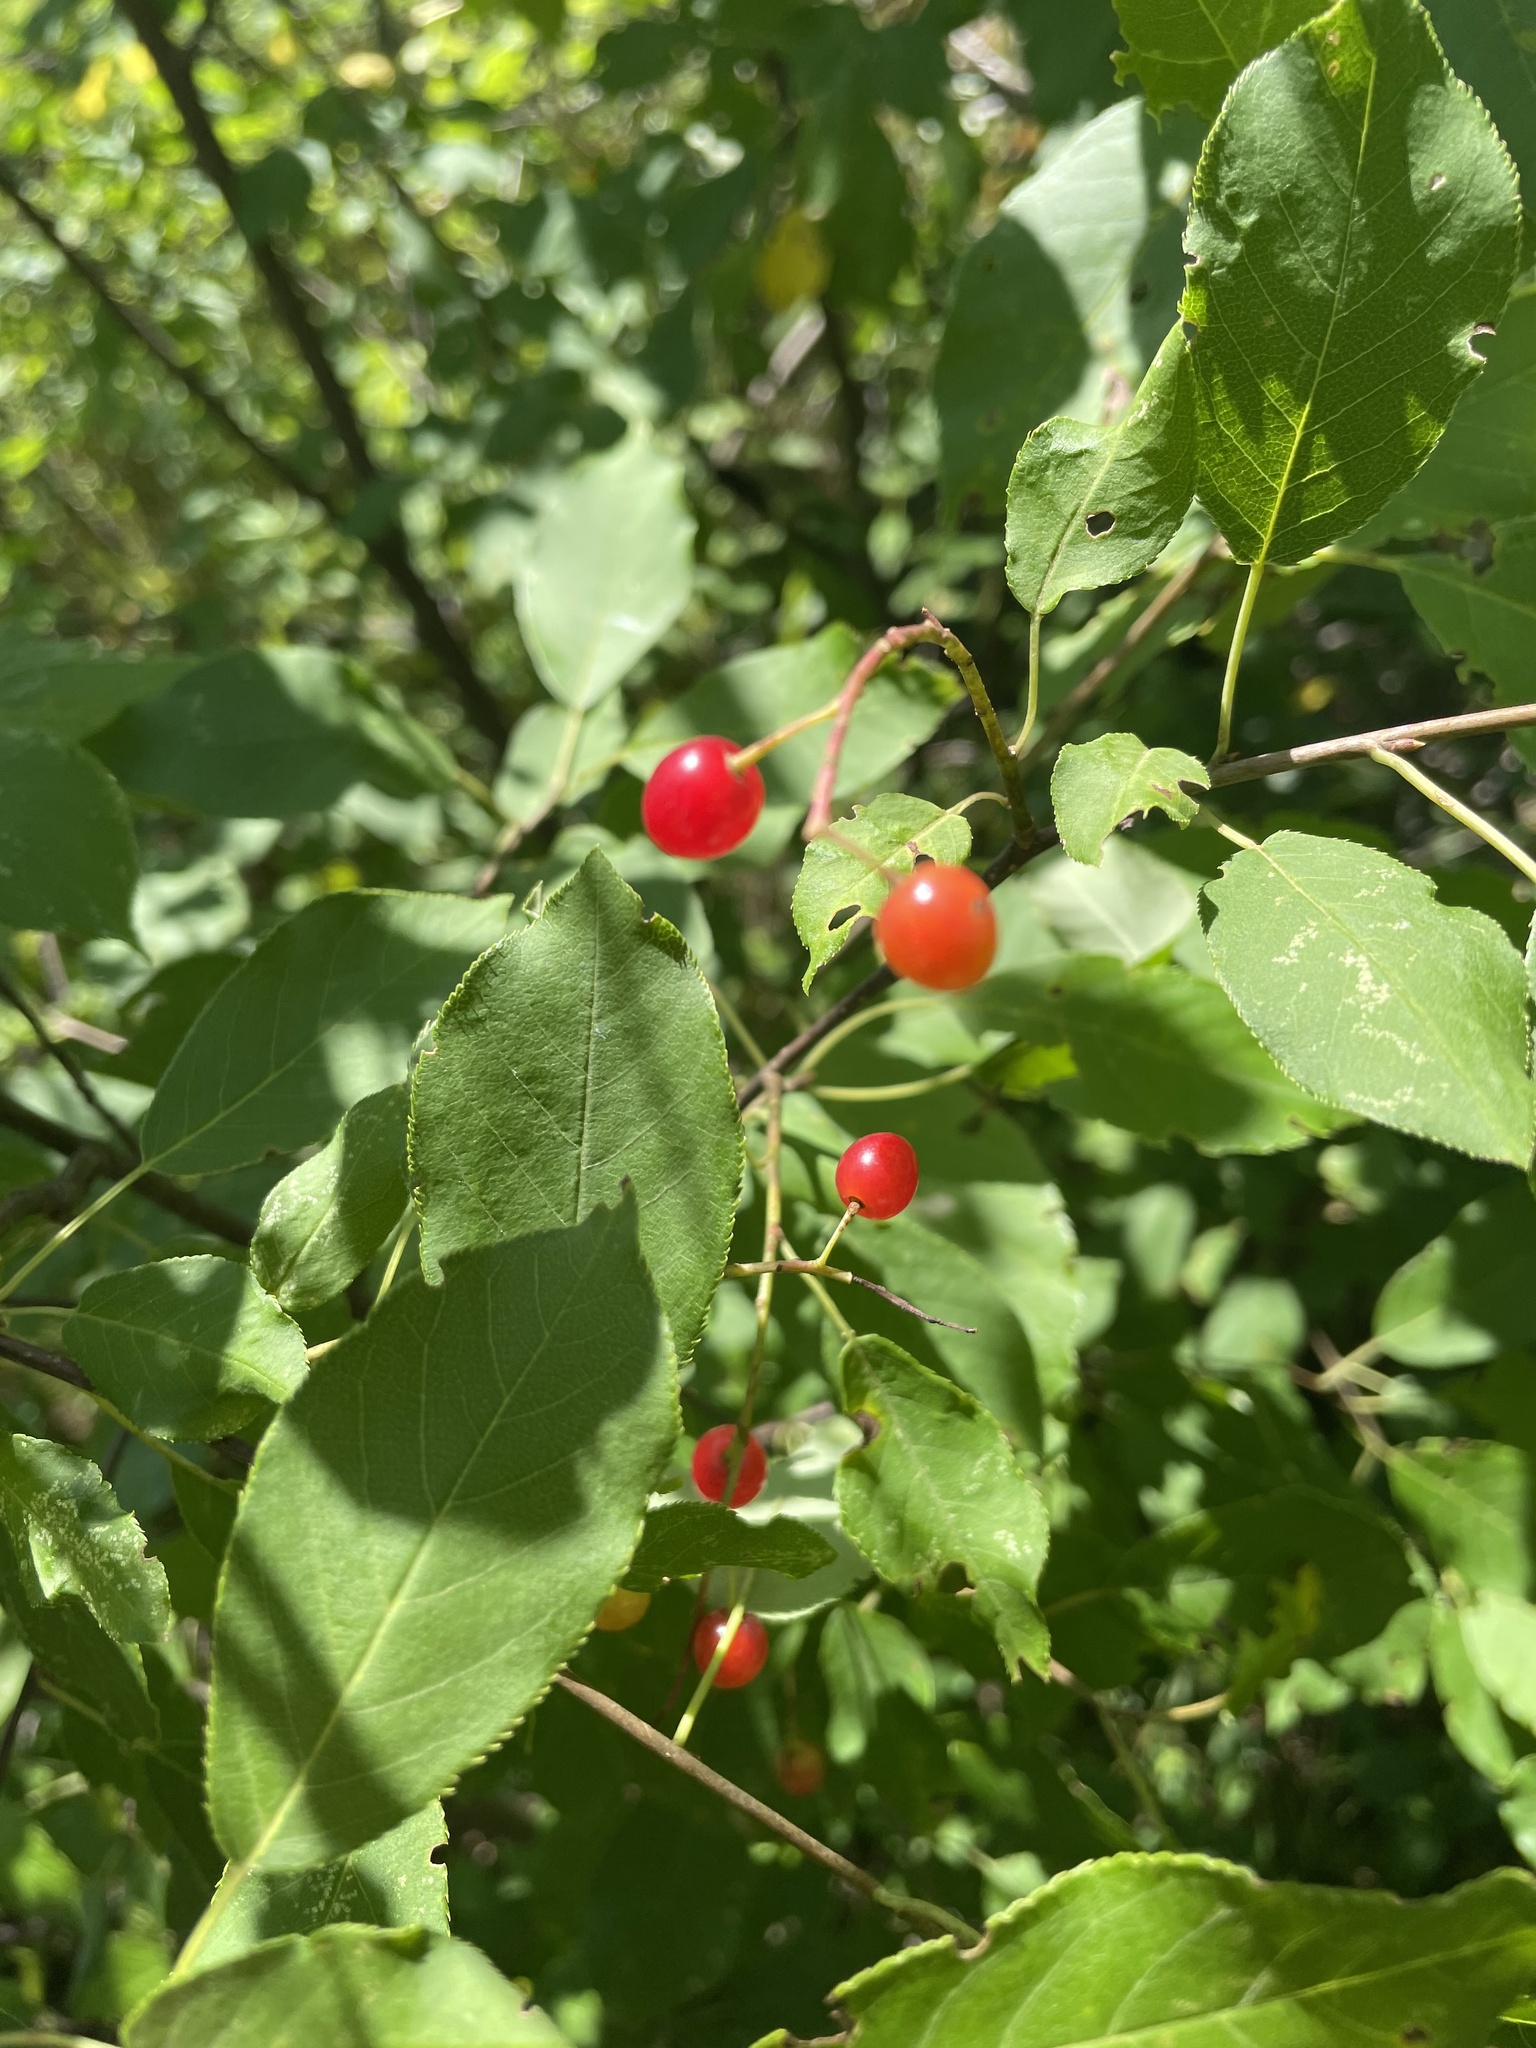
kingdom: Plantae
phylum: Tracheophyta
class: Magnoliopsida
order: Rosales
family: Rosaceae
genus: Prunus
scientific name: Prunus virginiana
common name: Chokecherry
